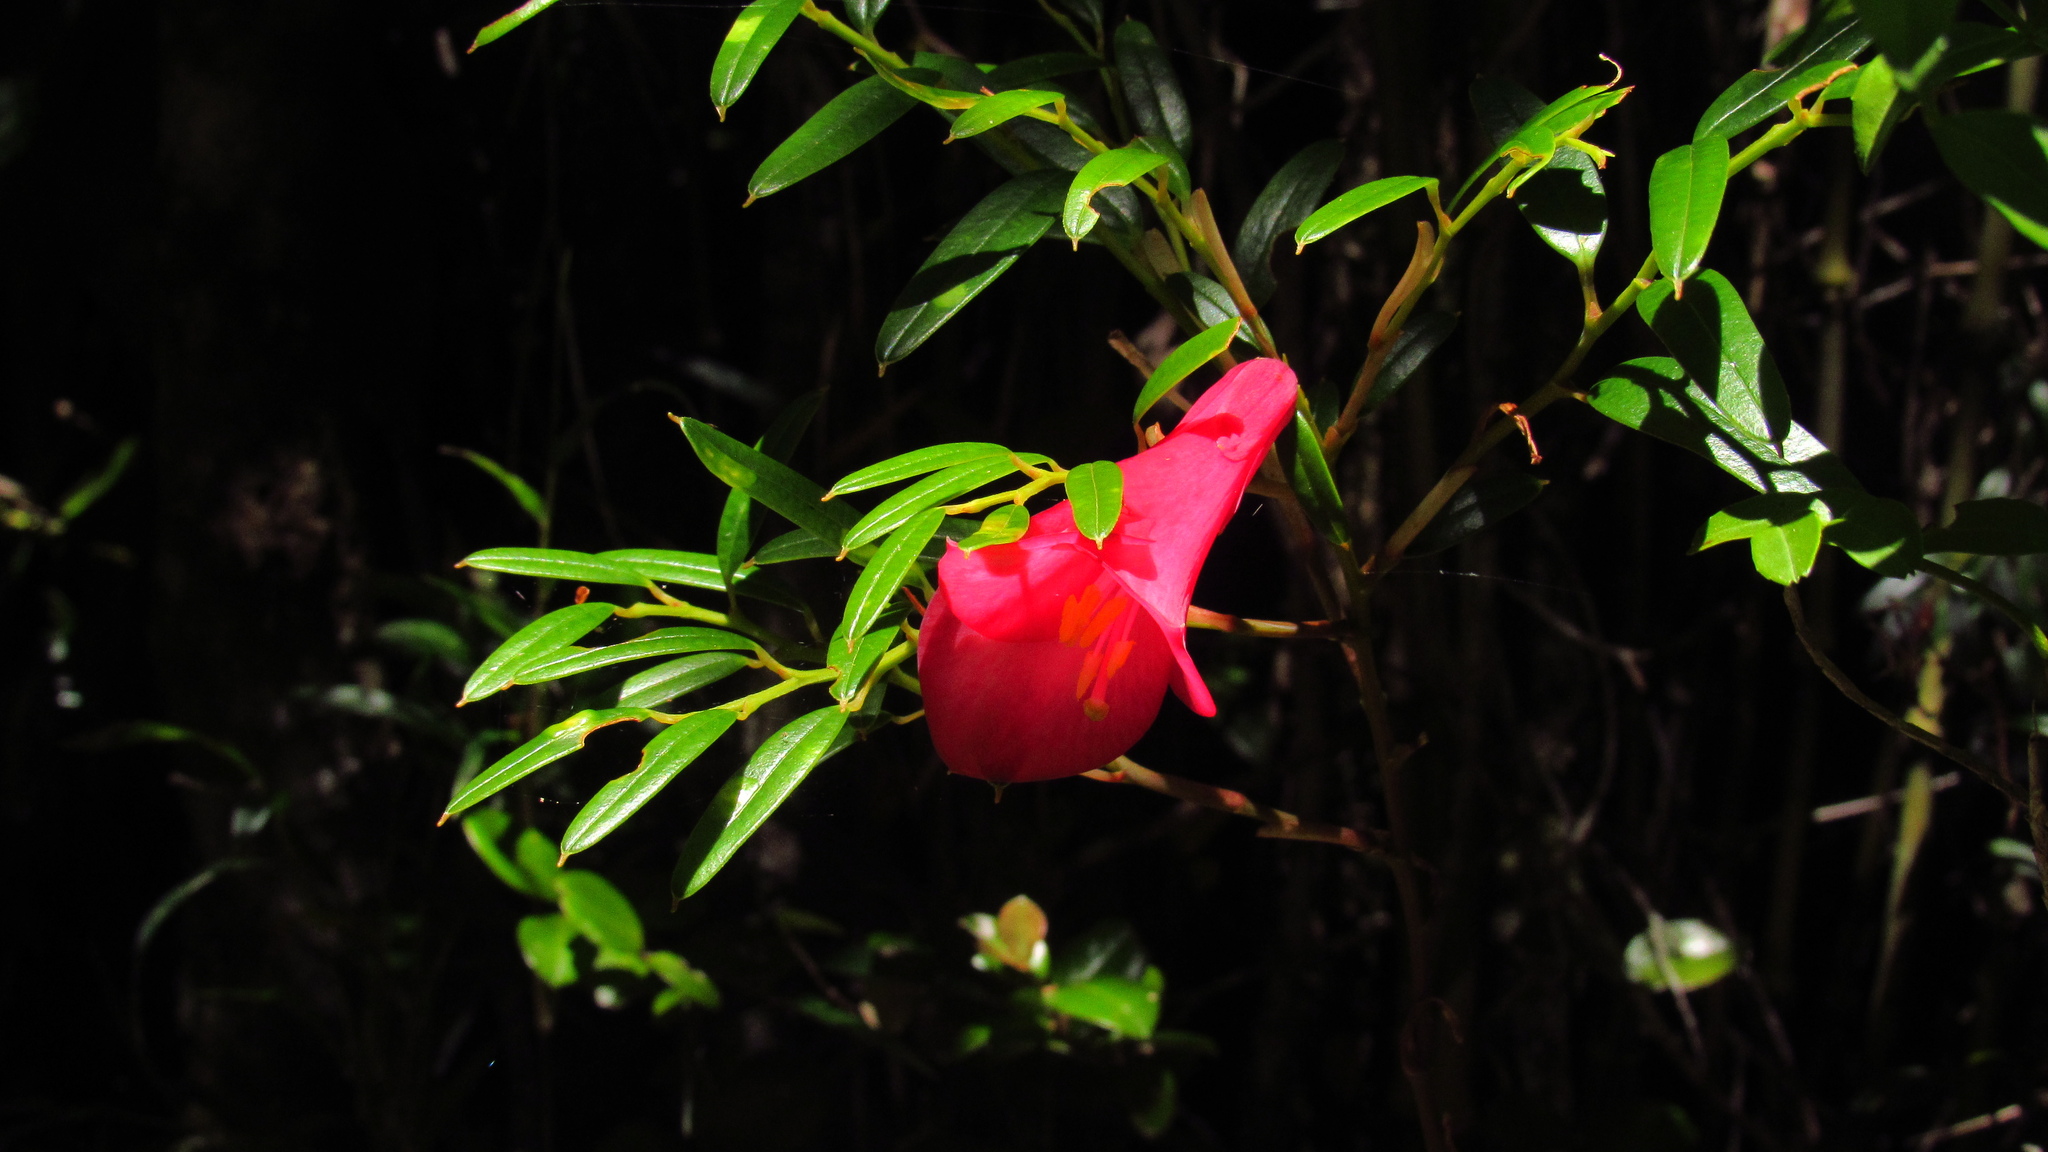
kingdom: Plantae
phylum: Tracheophyta
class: Liliopsida
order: Liliales
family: Philesiaceae
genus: Philesia
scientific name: Philesia magellanica
